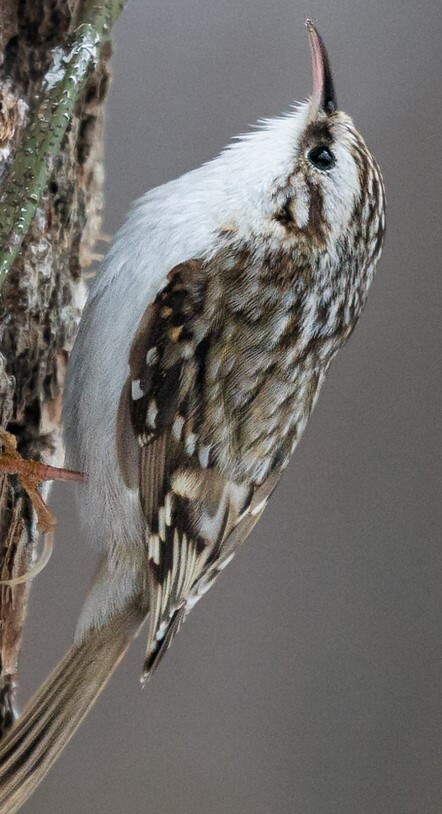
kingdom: Animalia
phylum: Chordata
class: Aves
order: Passeriformes
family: Certhiidae
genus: Certhia
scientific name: Certhia familiaris
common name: Eurasian treecreeper
